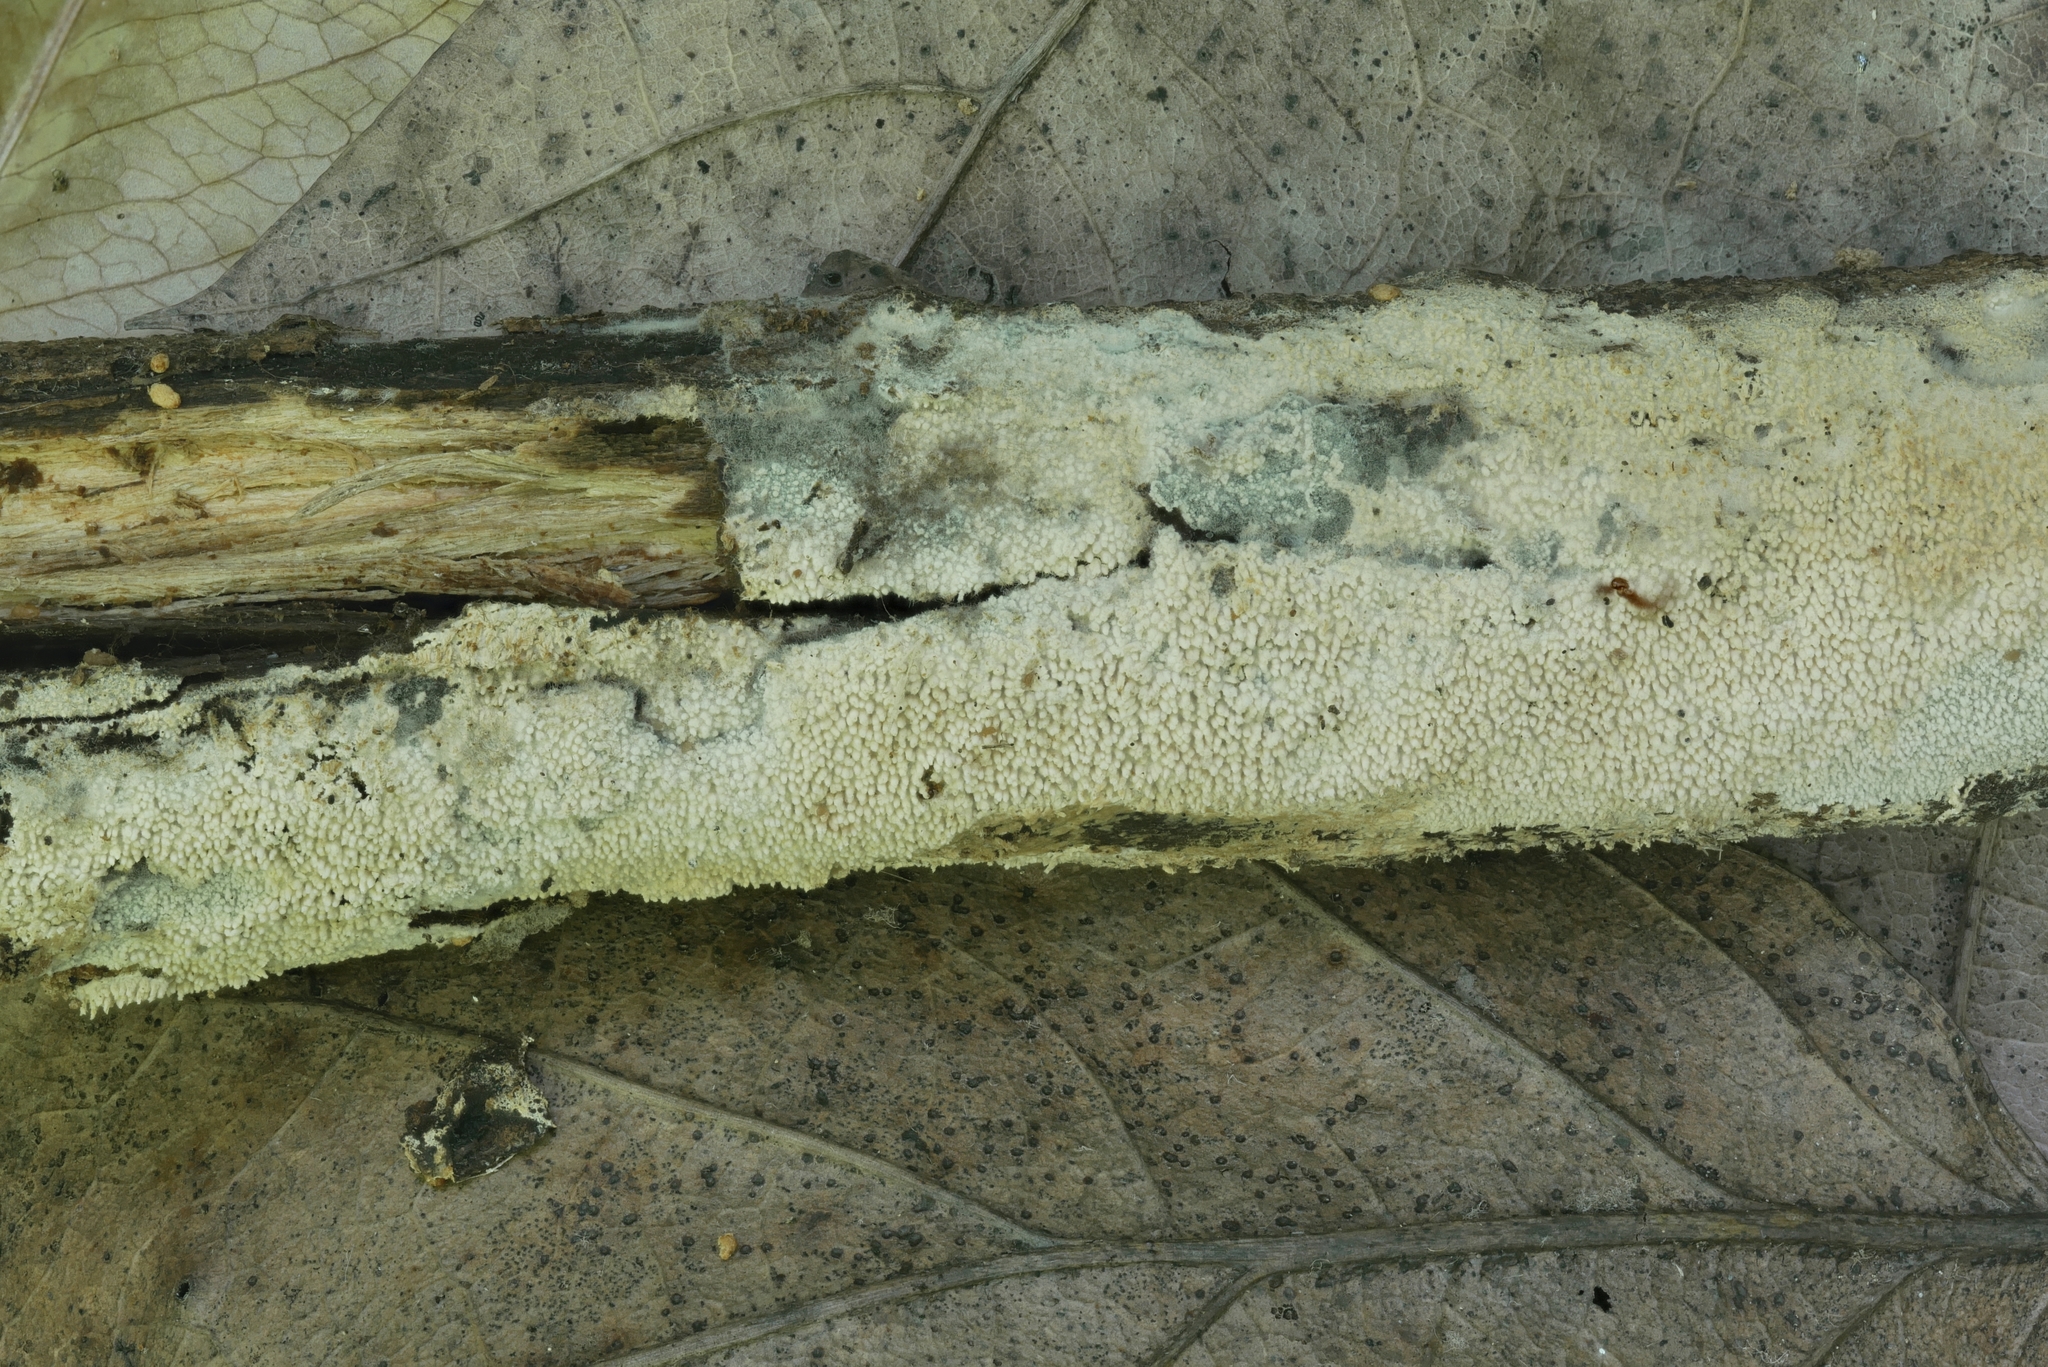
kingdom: Fungi
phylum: Basidiomycota
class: Agaricomycetes
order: Hymenochaetales
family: Hyphodontiaceae
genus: Hyphodontia
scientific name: Hyphodontia arguta
